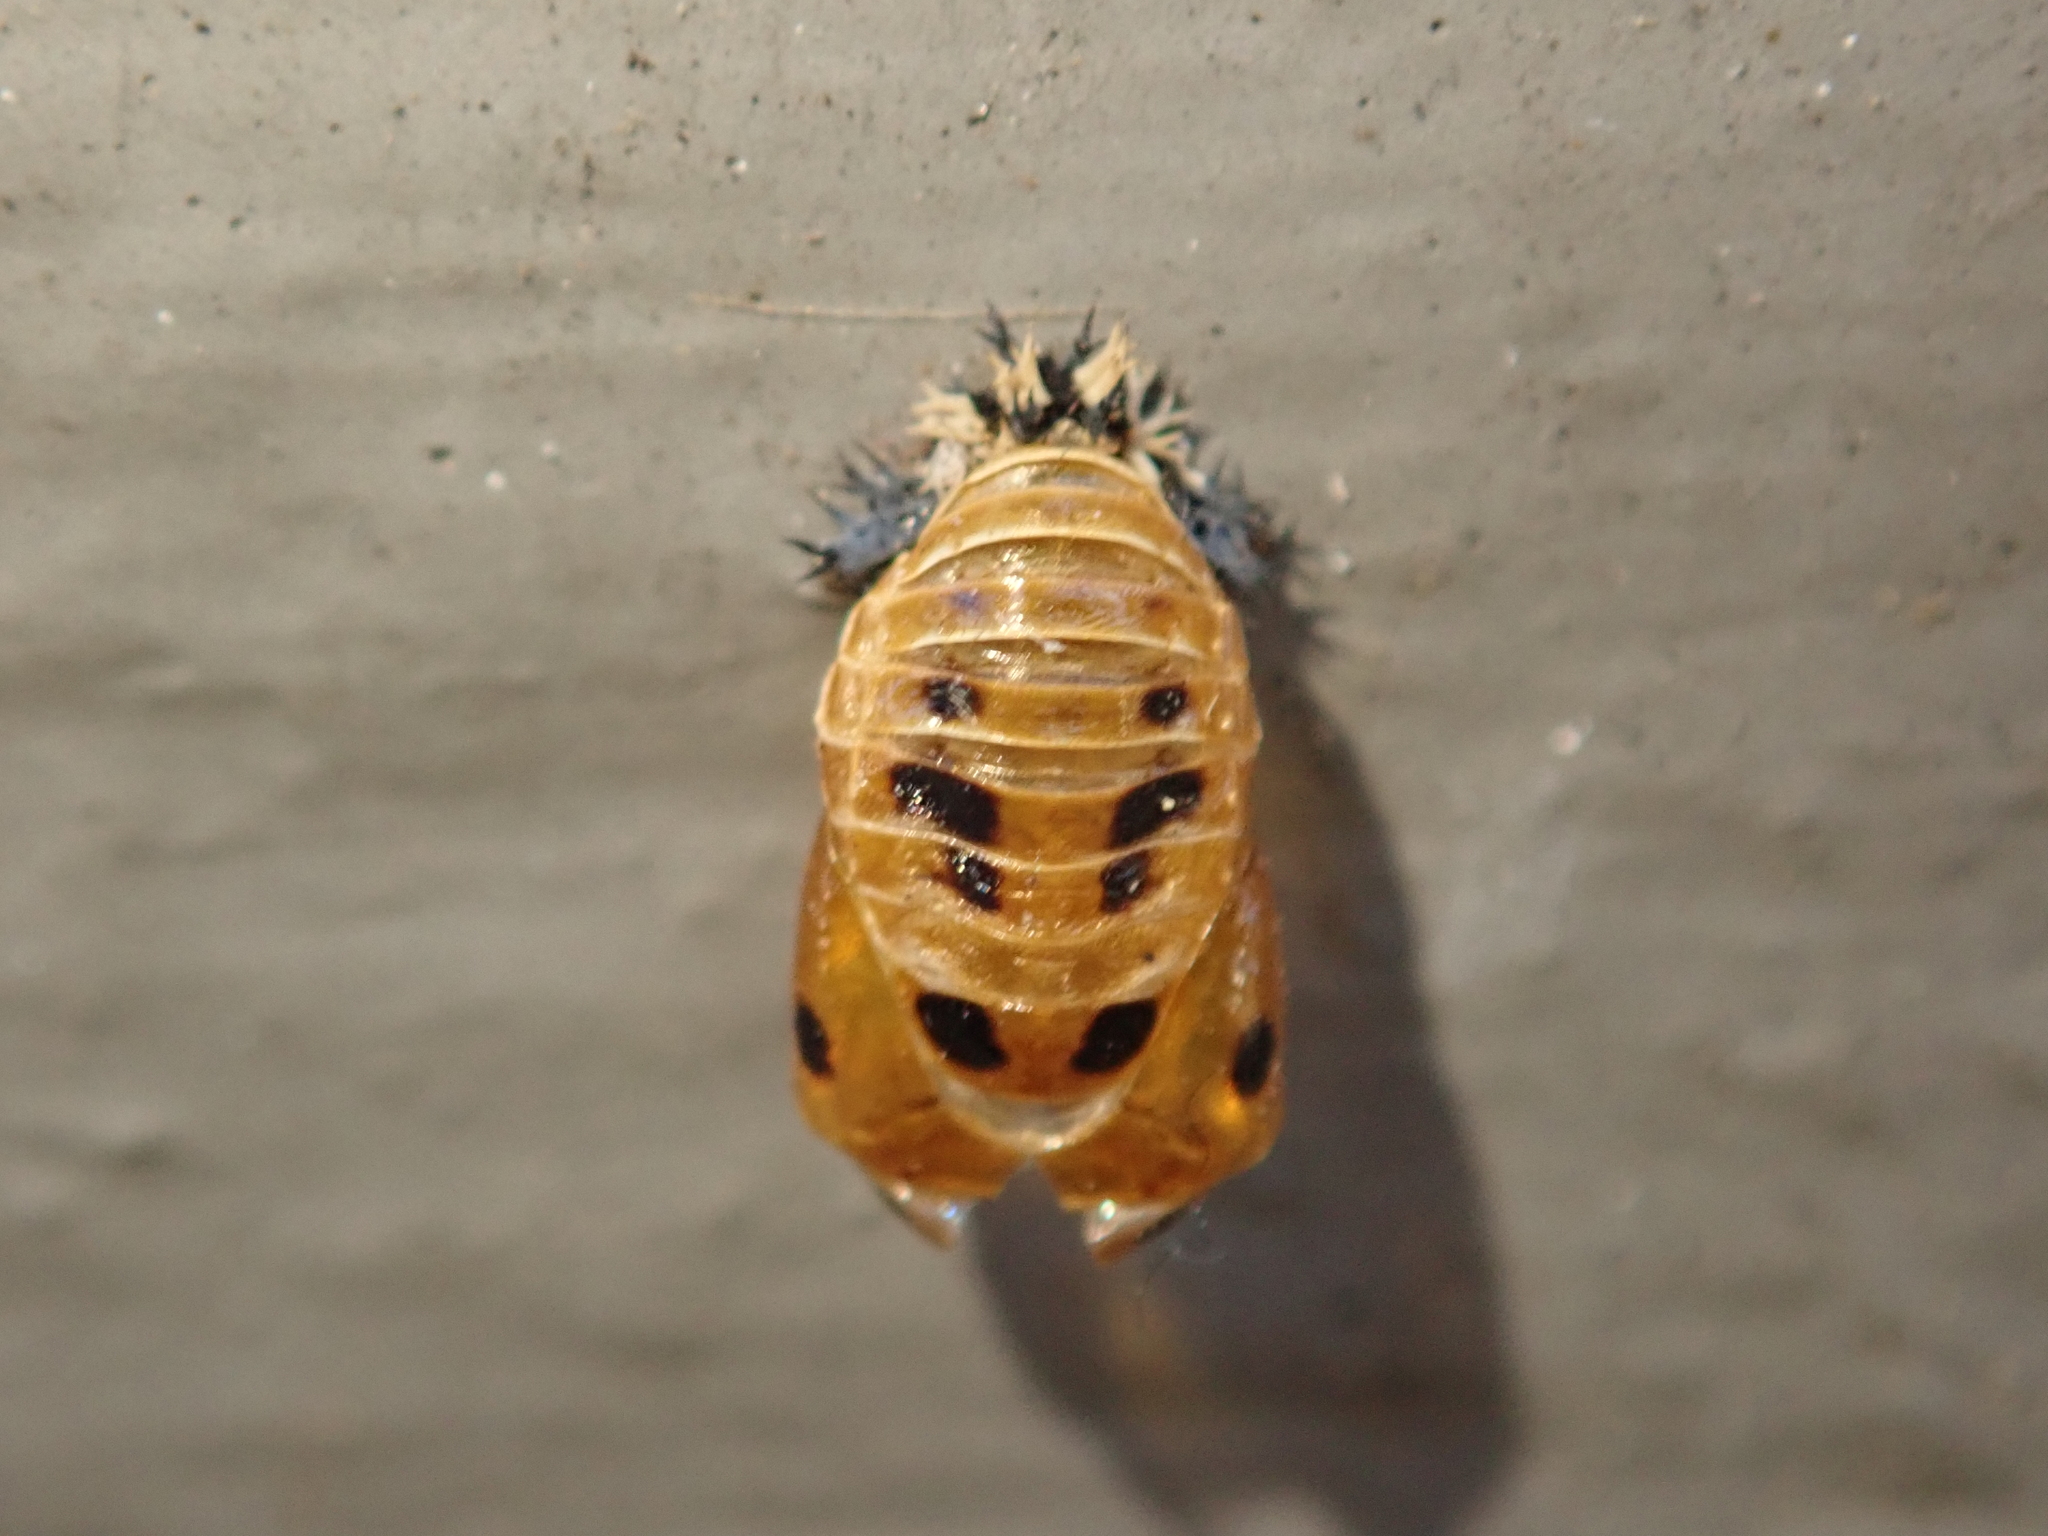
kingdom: Animalia
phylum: Arthropoda
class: Insecta
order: Coleoptera
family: Coccinellidae
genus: Harmonia
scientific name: Harmonia axyridis
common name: Harlequin ladybird
